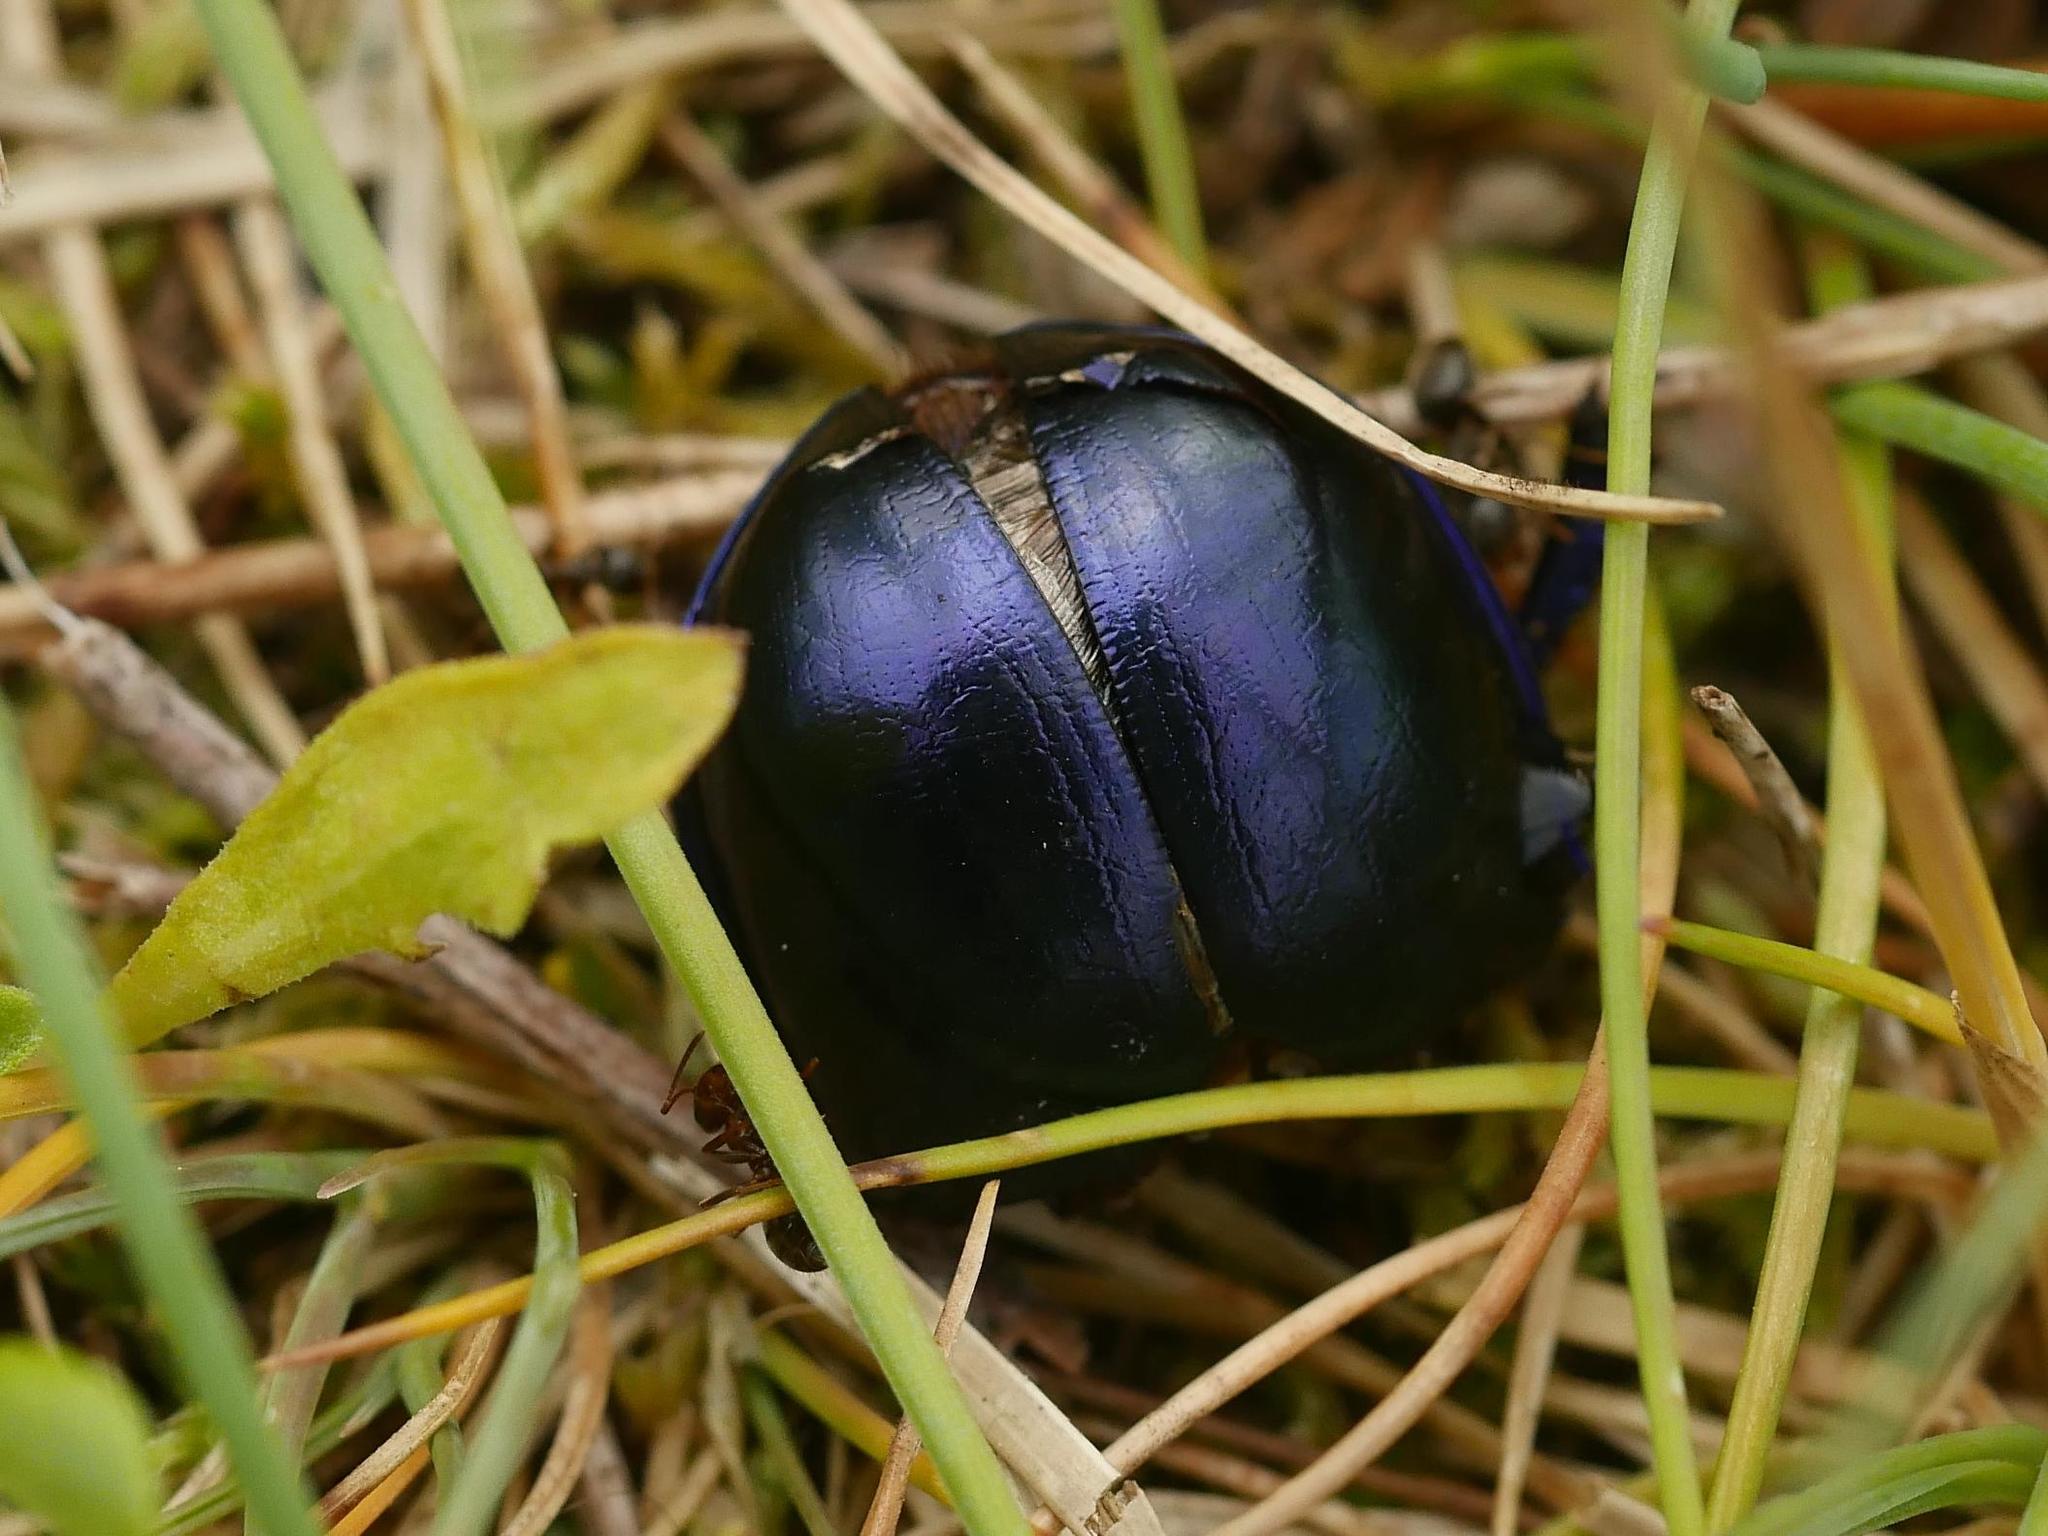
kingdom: Animalia
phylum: Arthropoda
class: Insecta
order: Coleoptera
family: Geotrupidae
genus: Trypocopris
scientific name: Trypocopris vernalis
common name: Spring dumbledor
